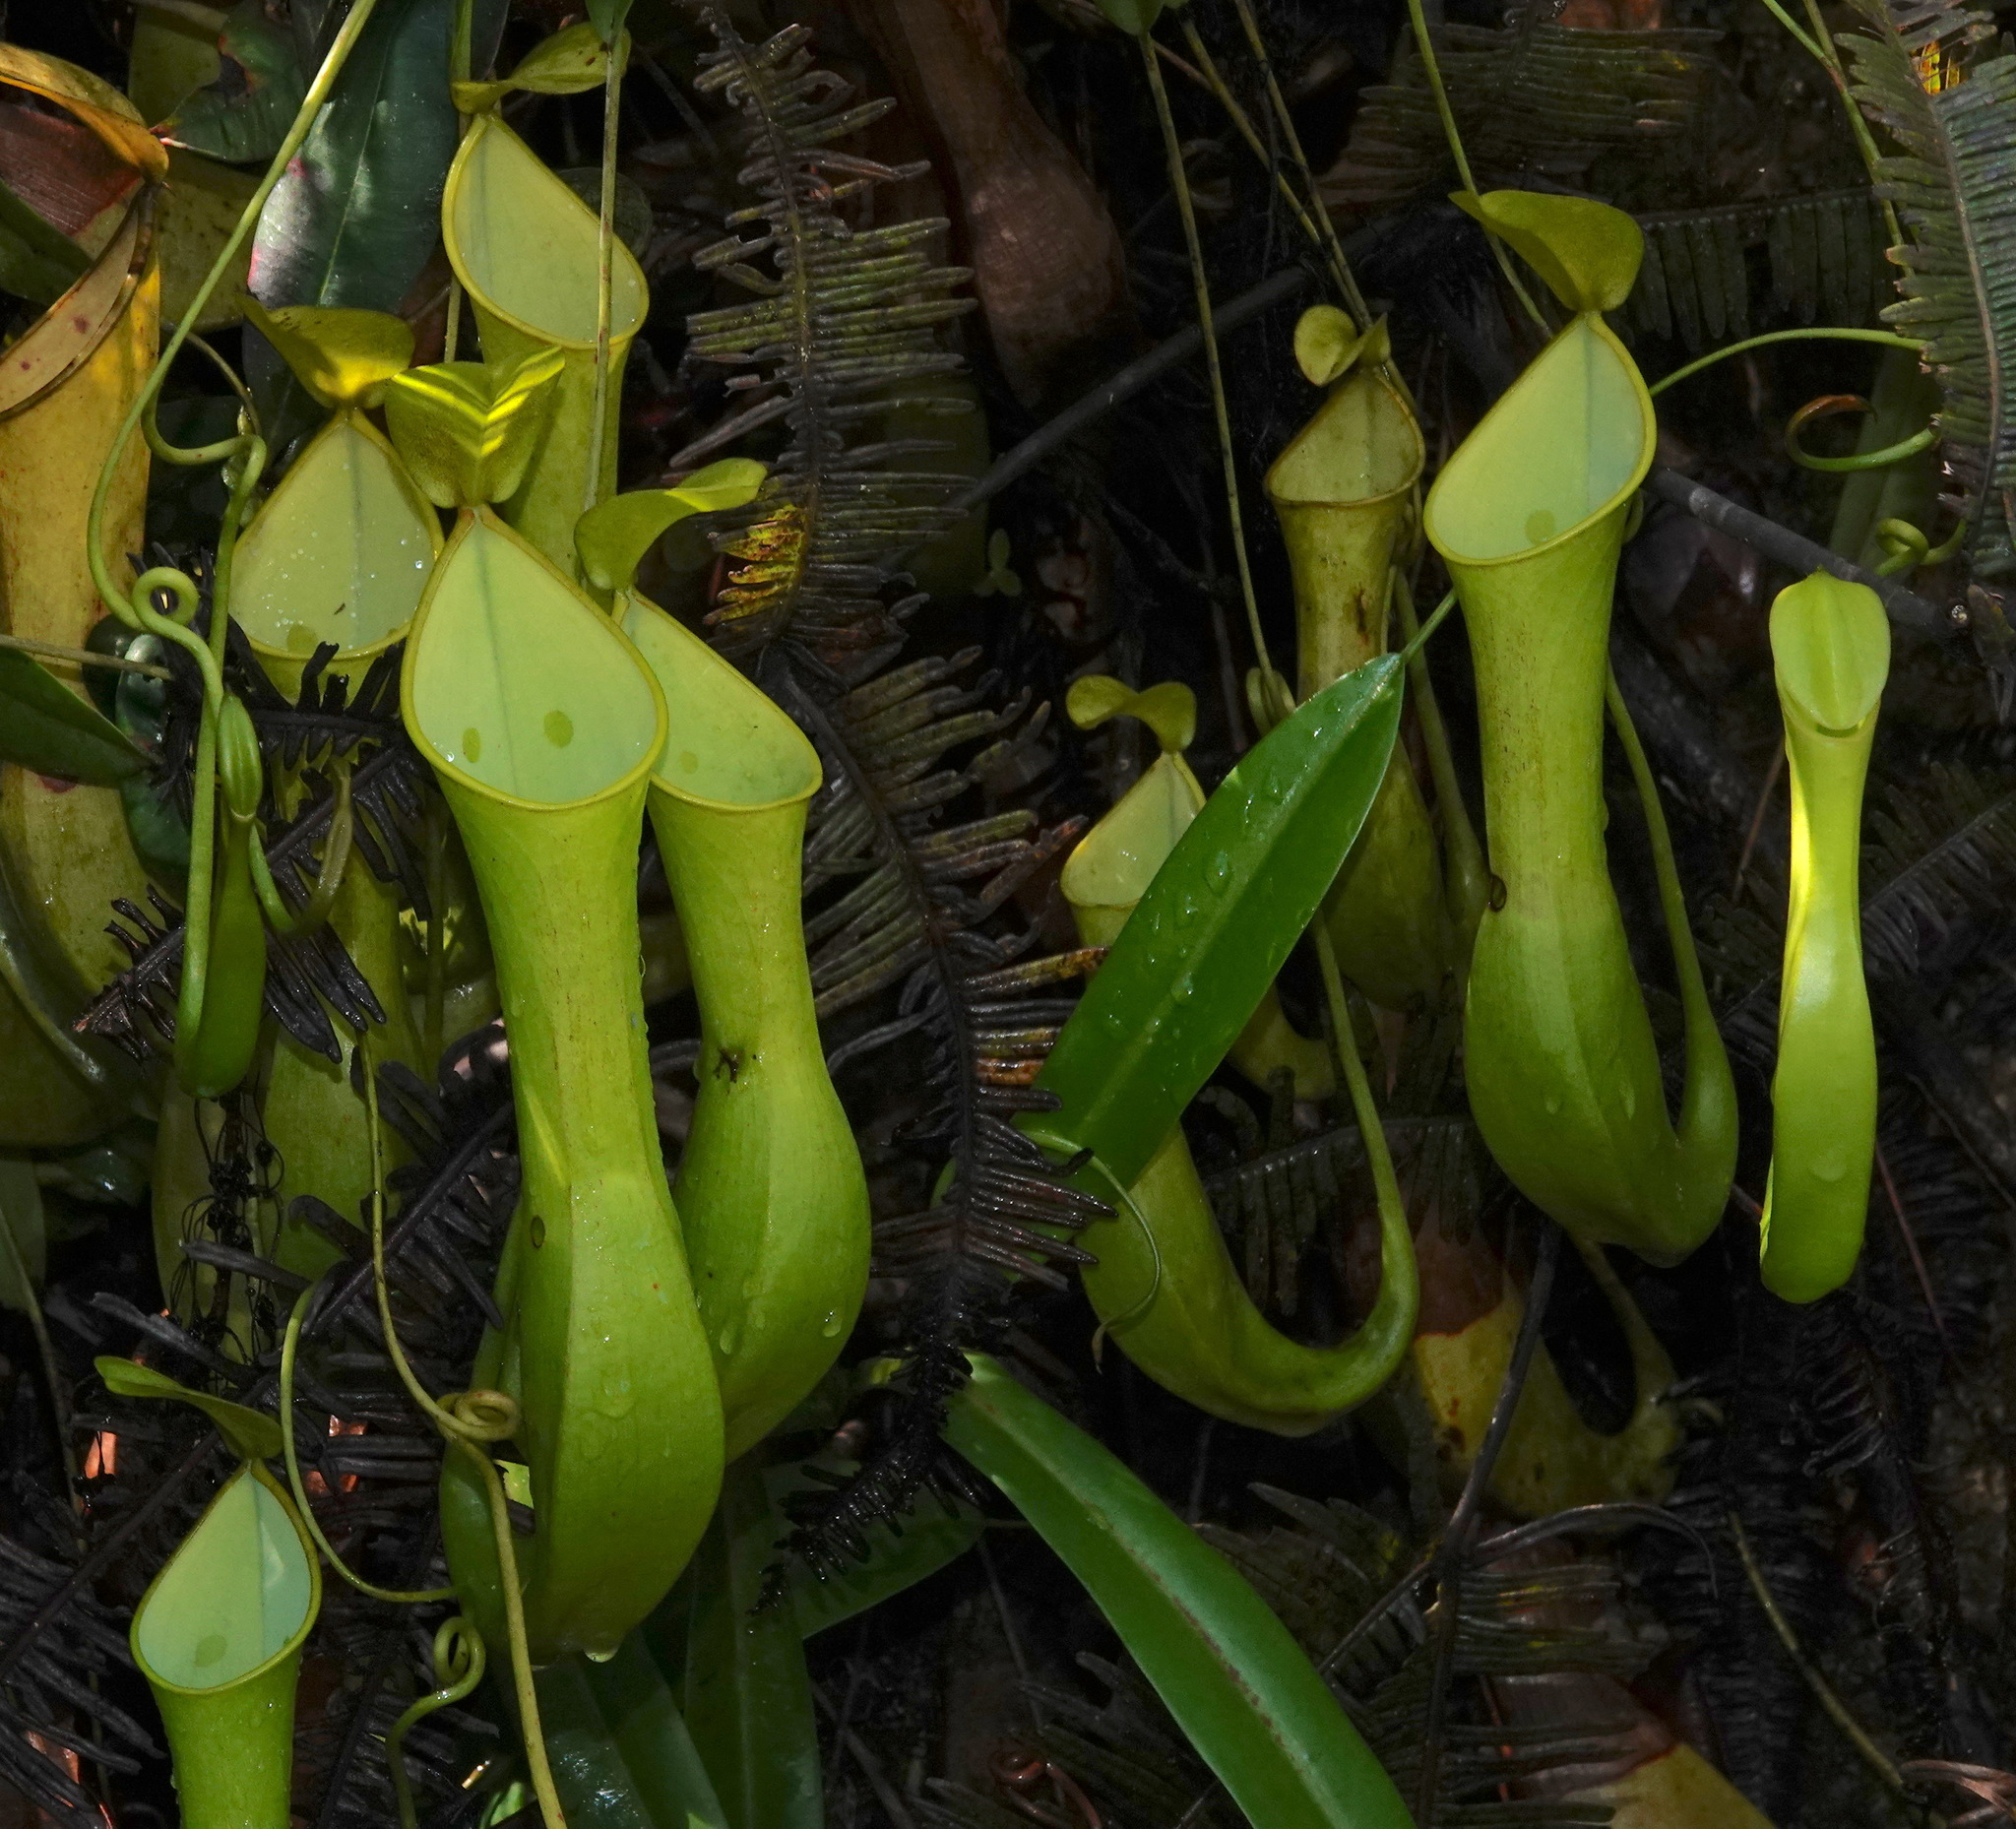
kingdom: Plantae
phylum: Tracheophyta
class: Magnoliopsida
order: Caryophyllales
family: Nepenthaceae
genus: Nepenthes
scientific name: Nepenthes reinwardtiana
